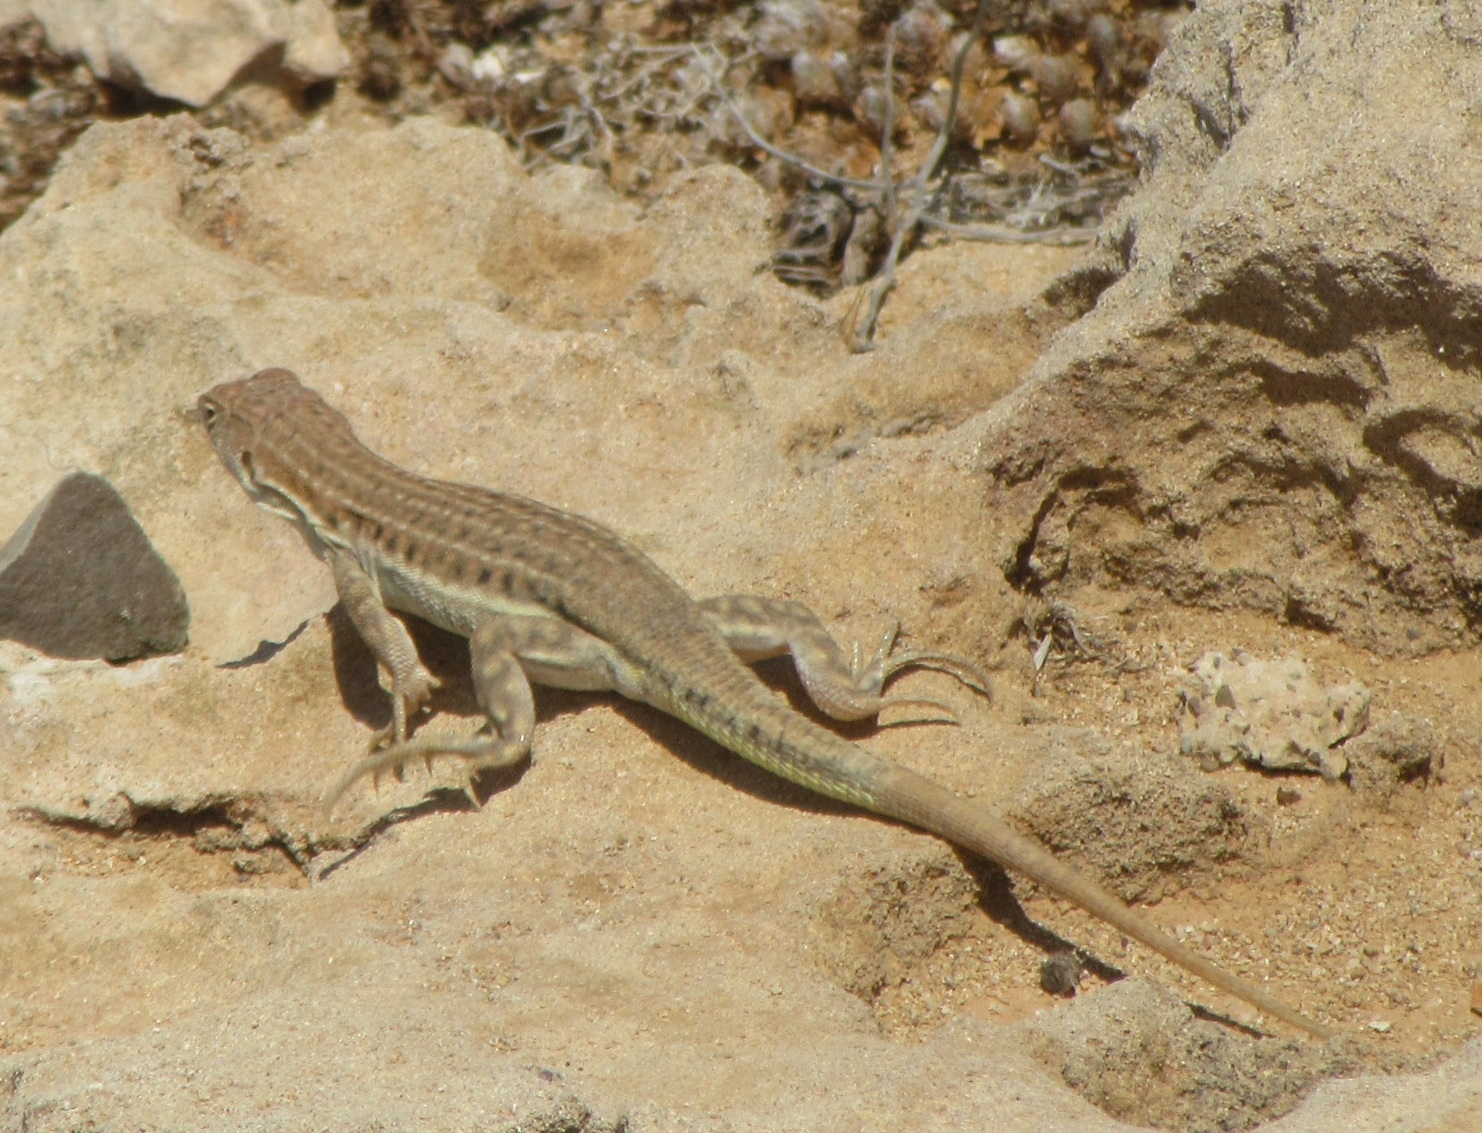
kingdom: Animalia
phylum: Chordata
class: Squamata
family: Lacertidae
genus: Acanthodactylus
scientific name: Acanthodactylus schreiberi
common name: Schreiber's fringe-fingered lizard
